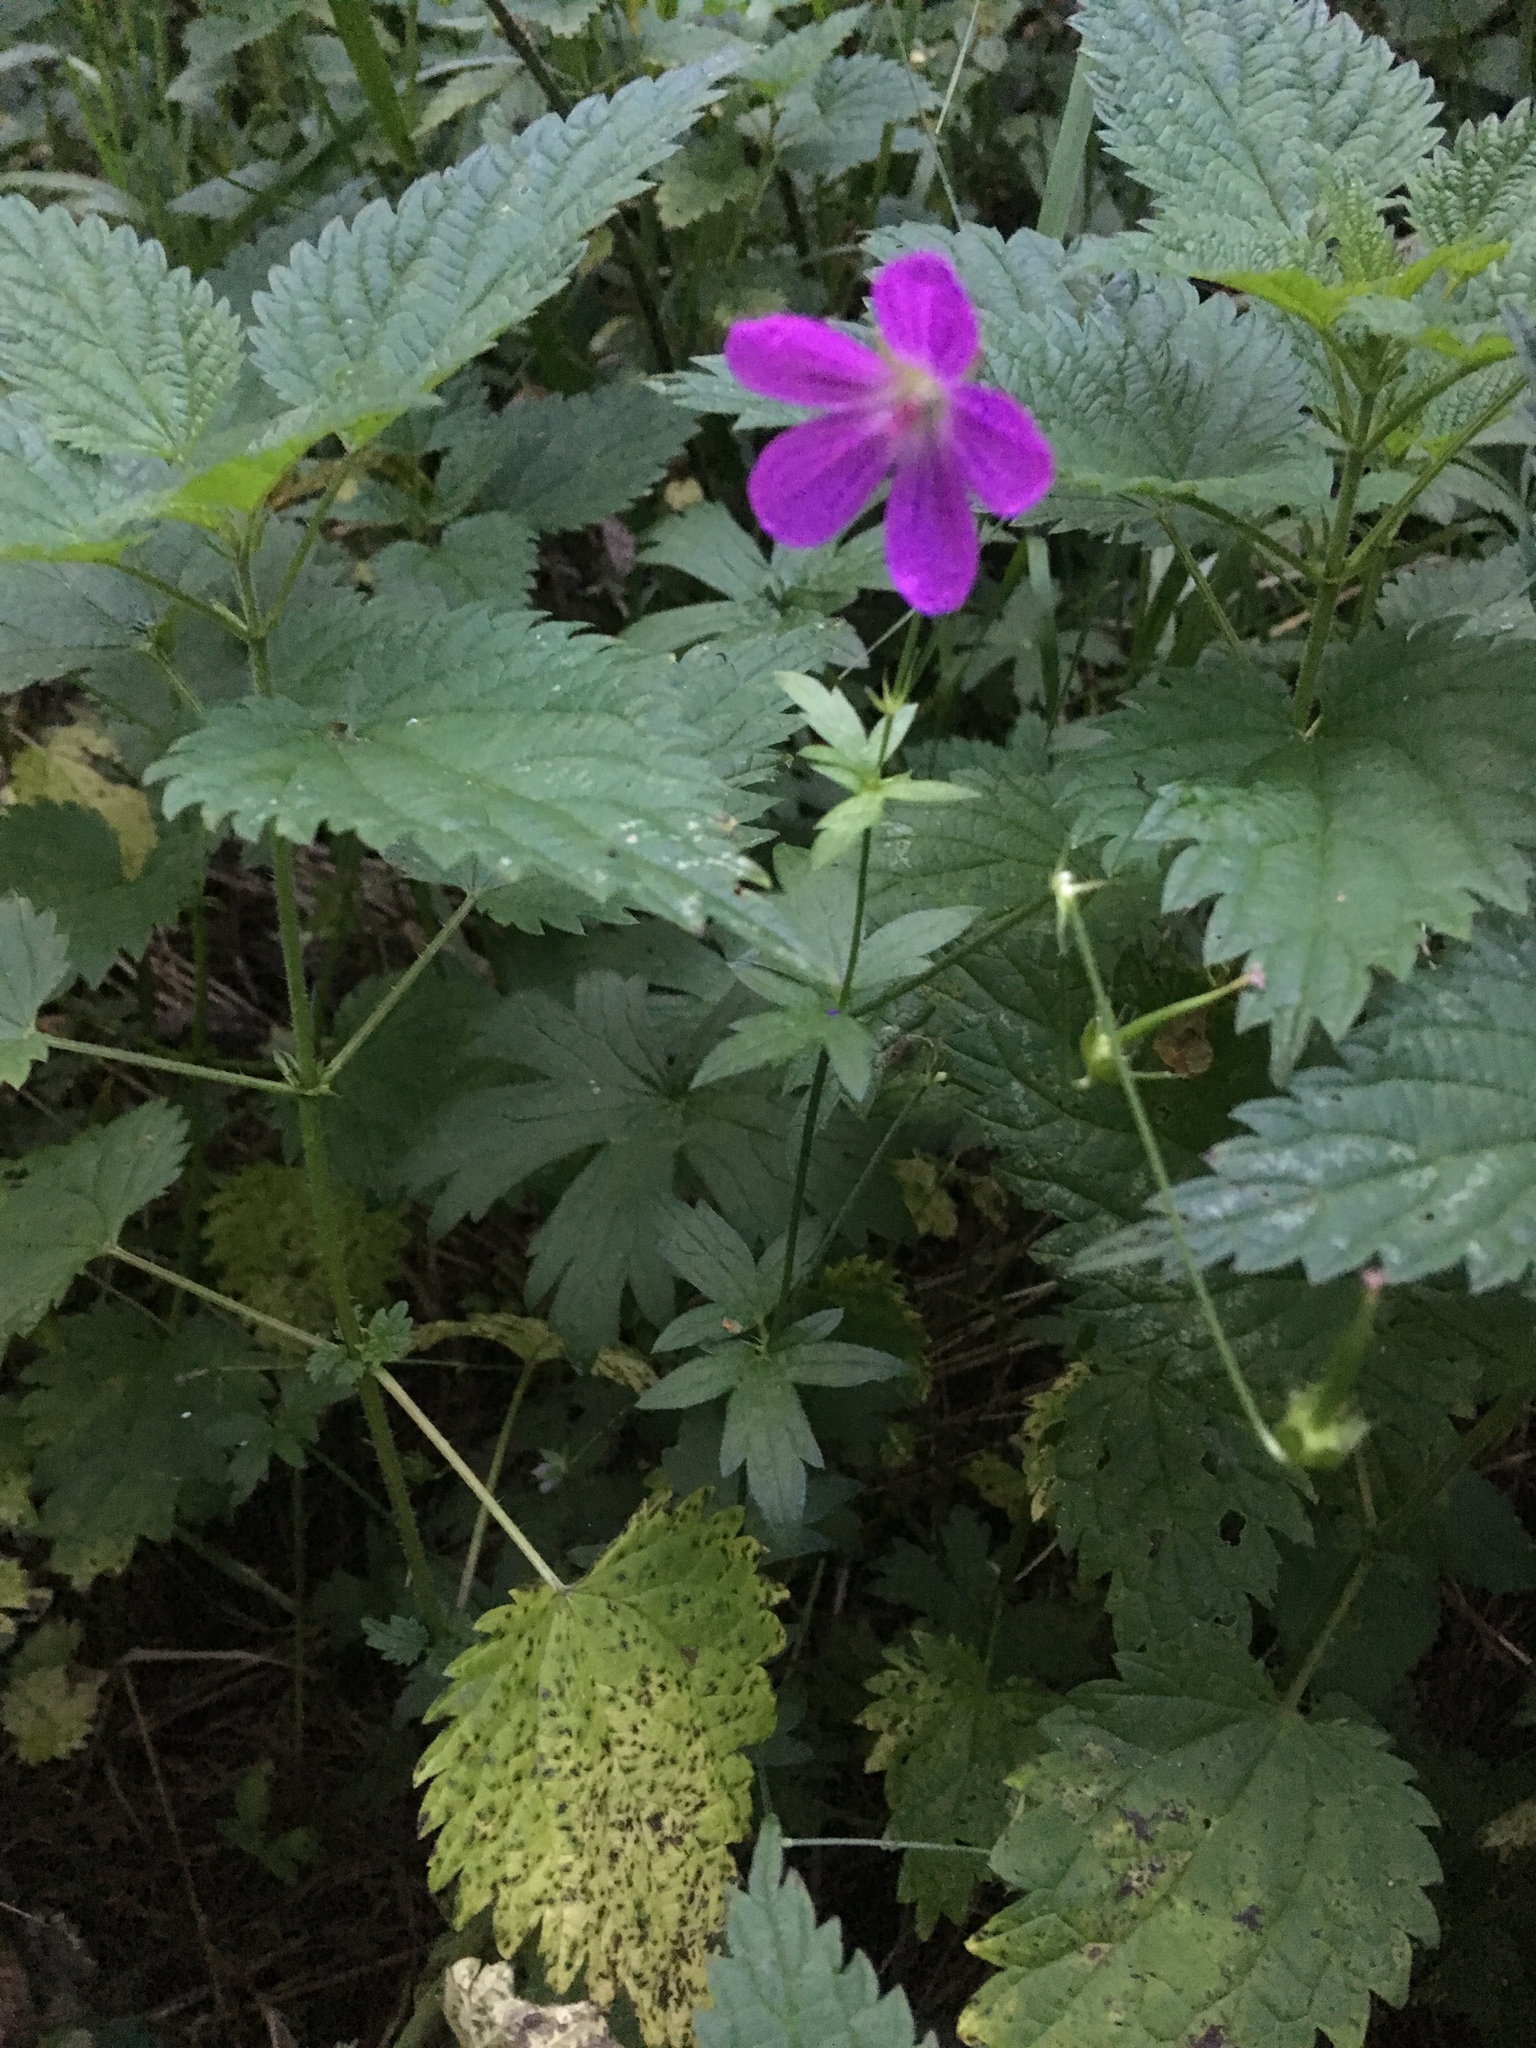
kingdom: Plantae
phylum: Tracheophyta
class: Magnoliopsida
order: Geraniales
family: Geraniaceae
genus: Geranium
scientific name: Geranium palustre
